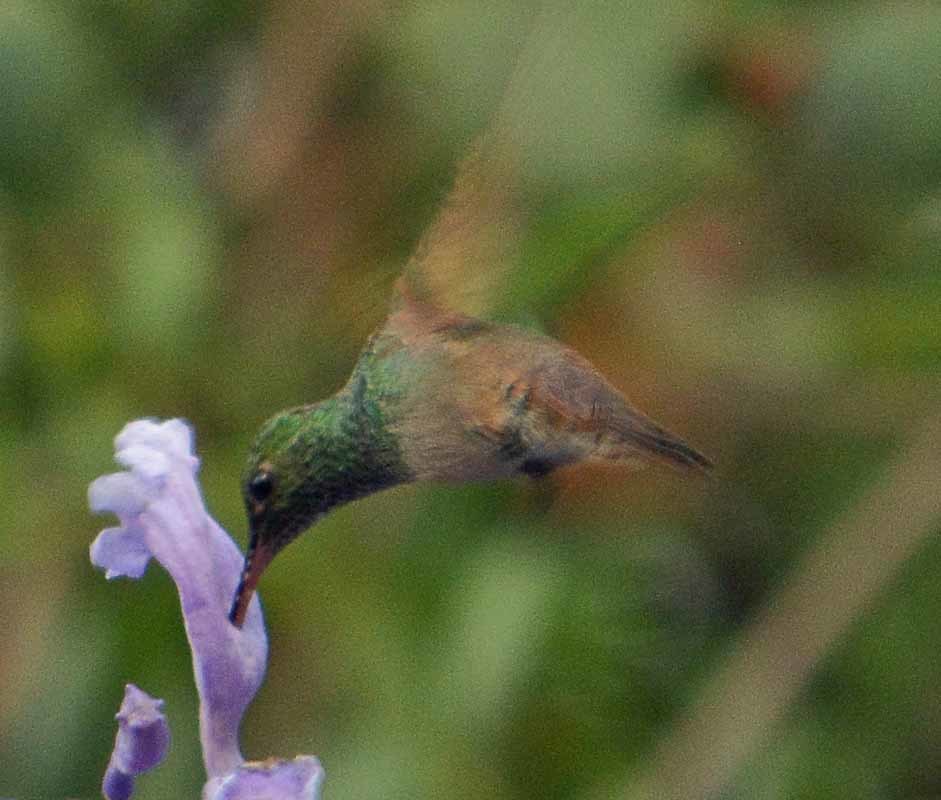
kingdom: Animalia
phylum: Chordata
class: Aves
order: Apodiformes
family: Trochilidae
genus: Saucerottia
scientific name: Saucerottia beryllina
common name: Berylline hummingbird
